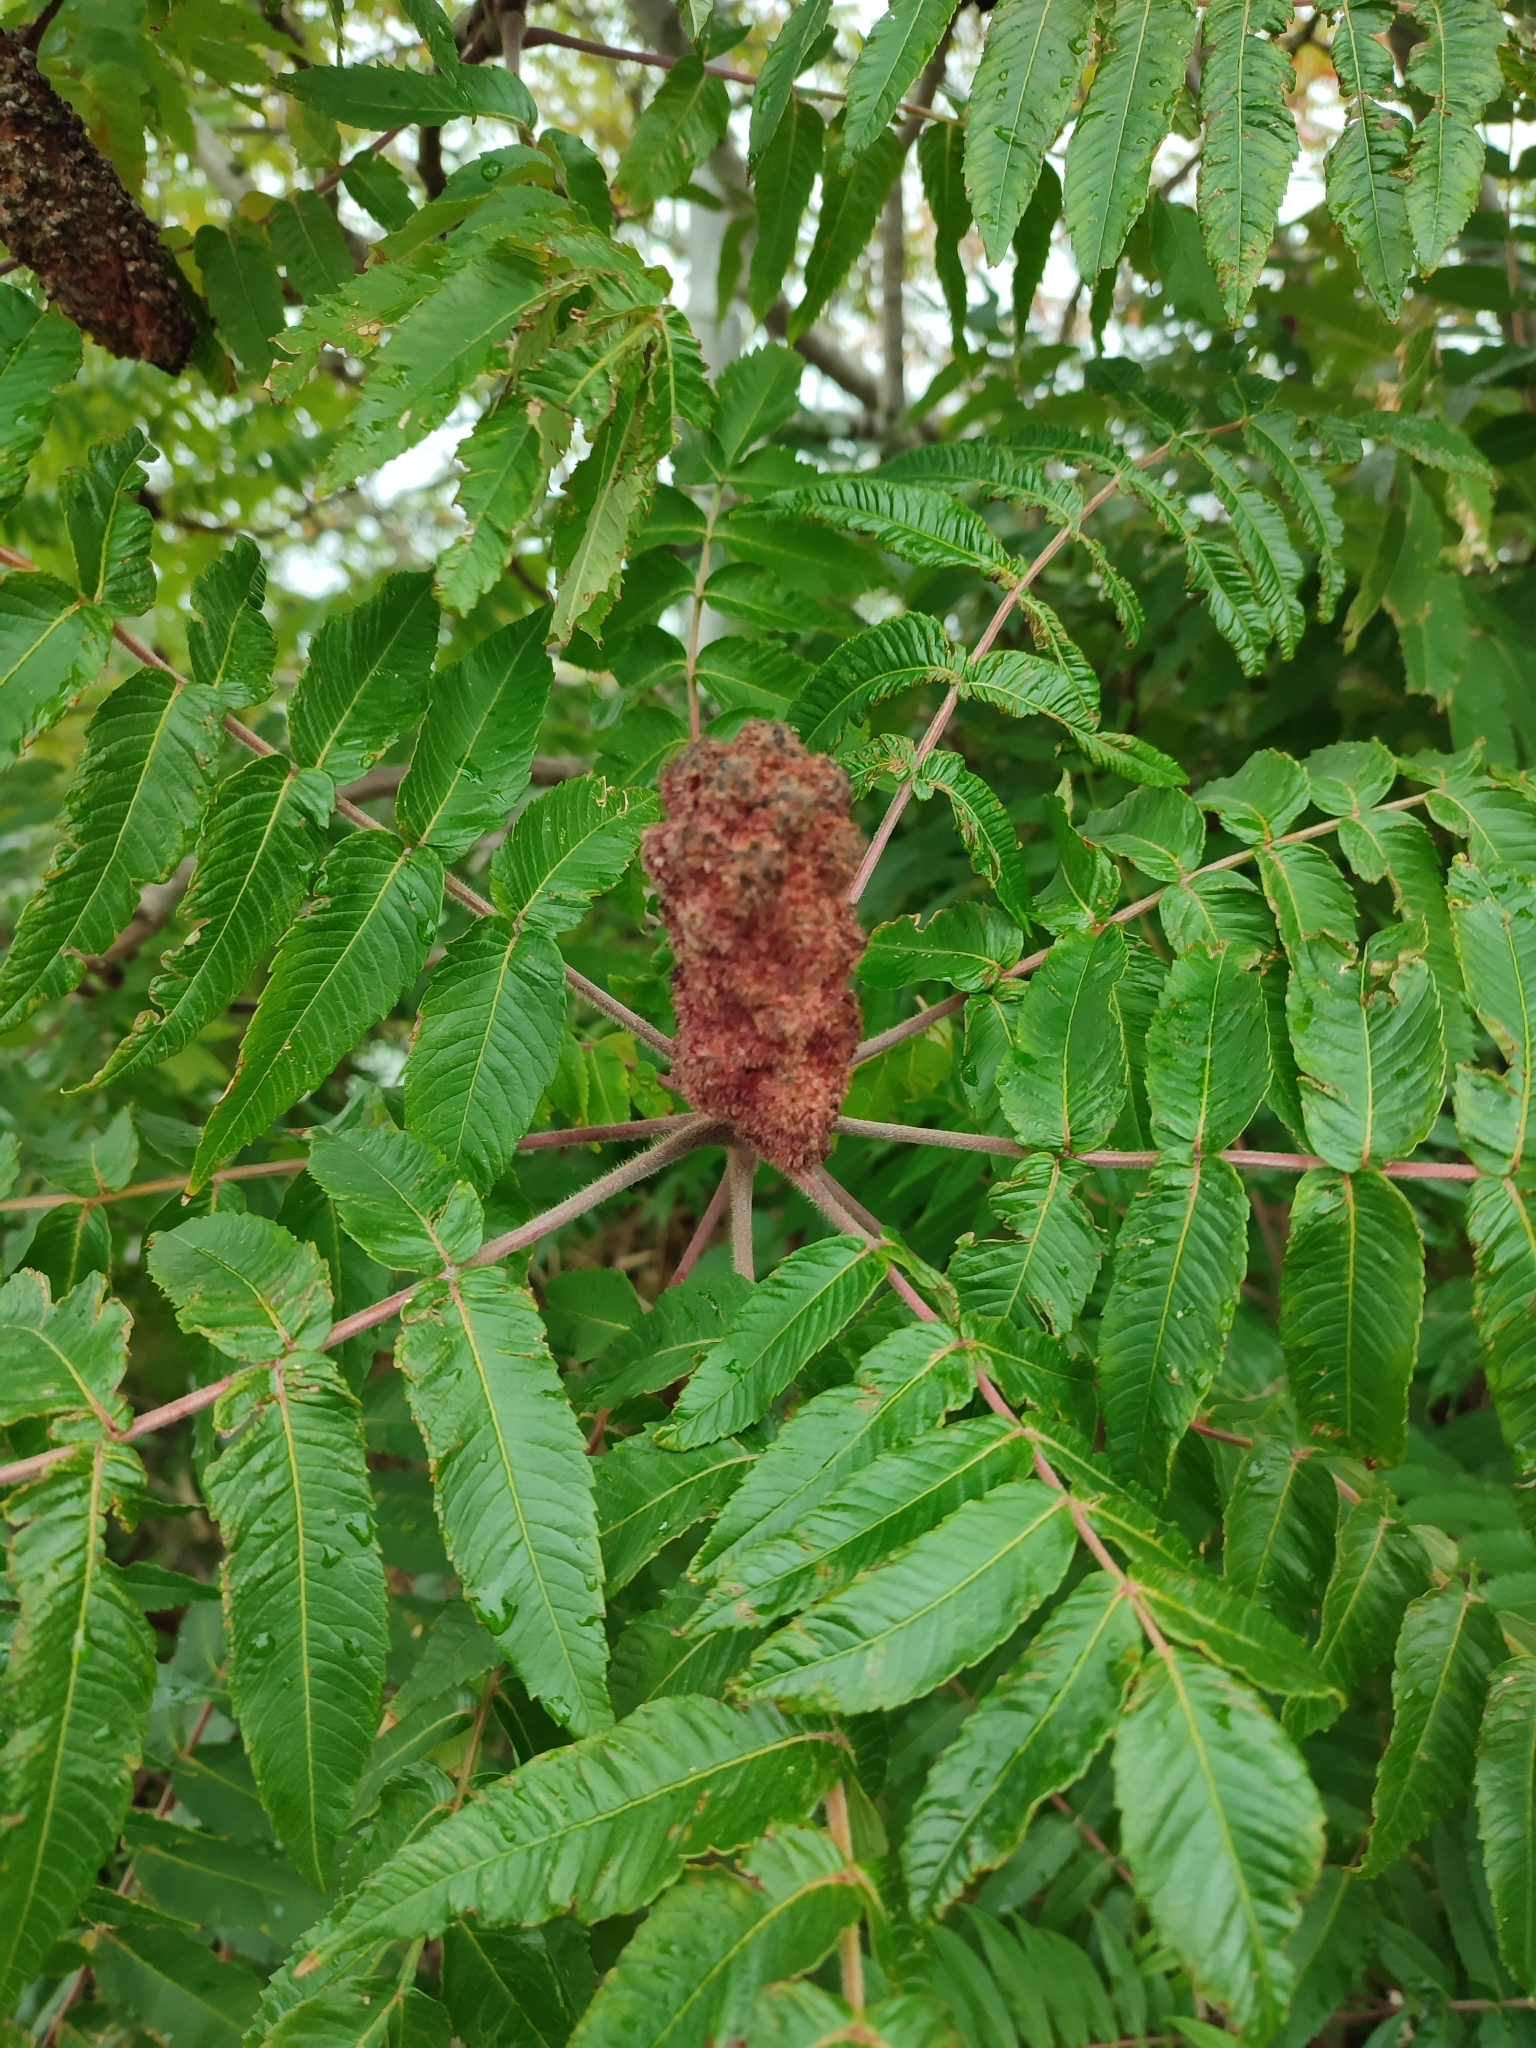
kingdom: Plantae
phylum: Tracheophyta
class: Magnoliopsida
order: Sapindales
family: Anacardiaceae
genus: Rhus
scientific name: Rhus typhina
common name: Staghorn sumac
